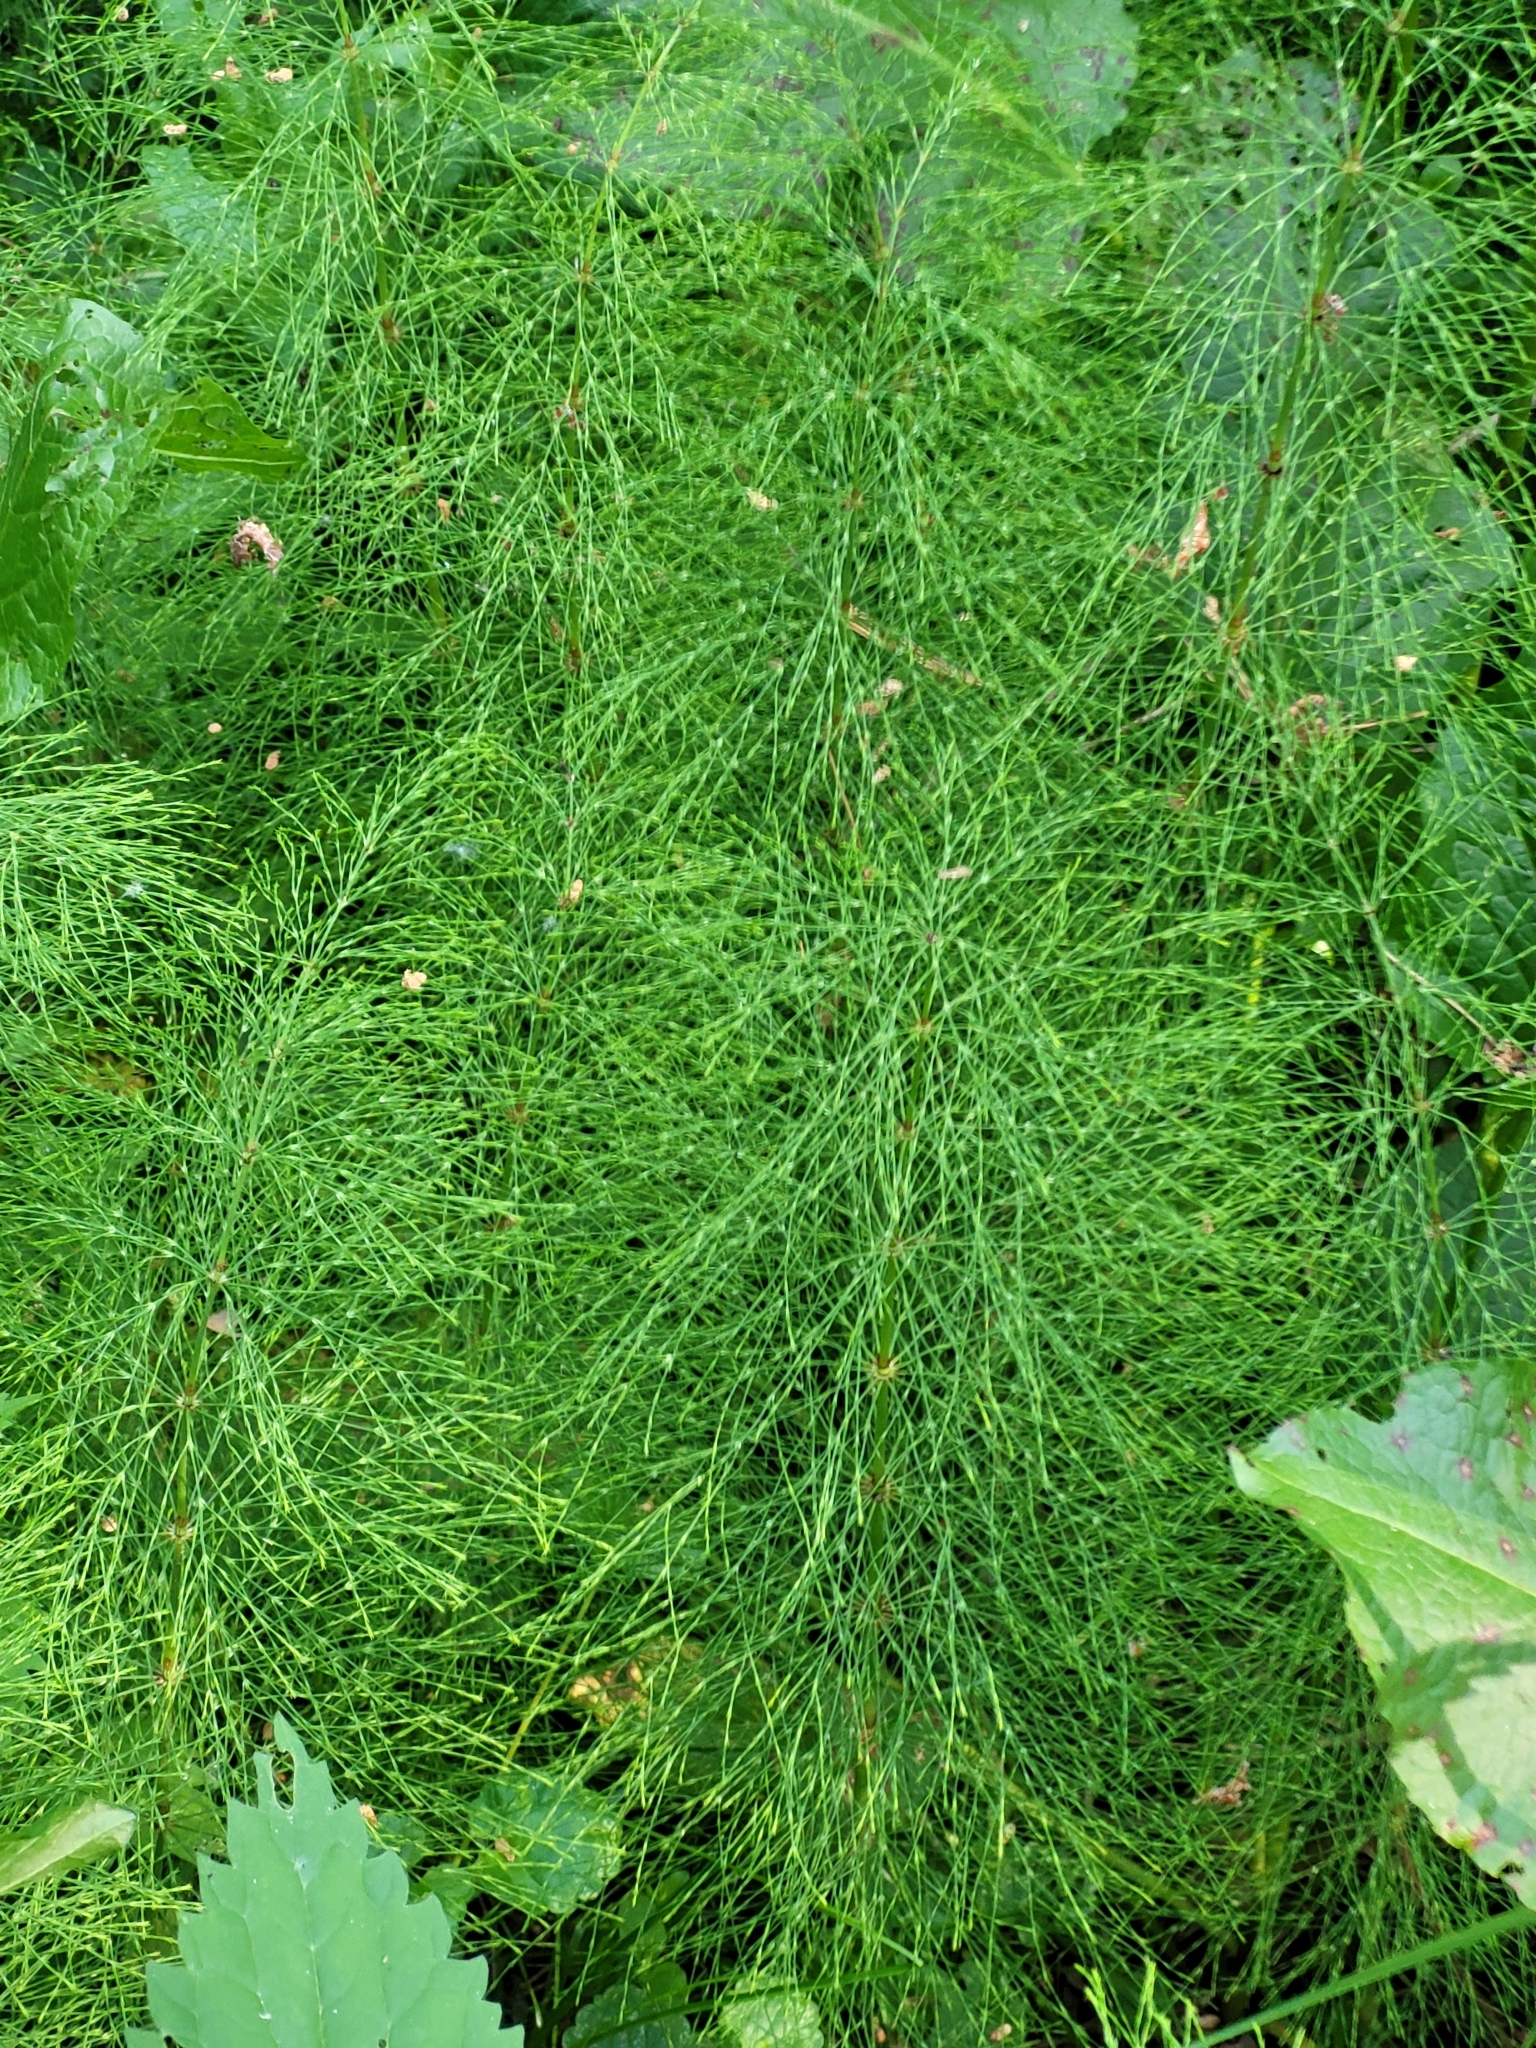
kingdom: Plantae
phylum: Tracheophyta
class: Polypodiopsida
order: Equisetales
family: Equisetaceae
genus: Equisetum
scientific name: Equisetum sylvaticum
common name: Wood horsetail
